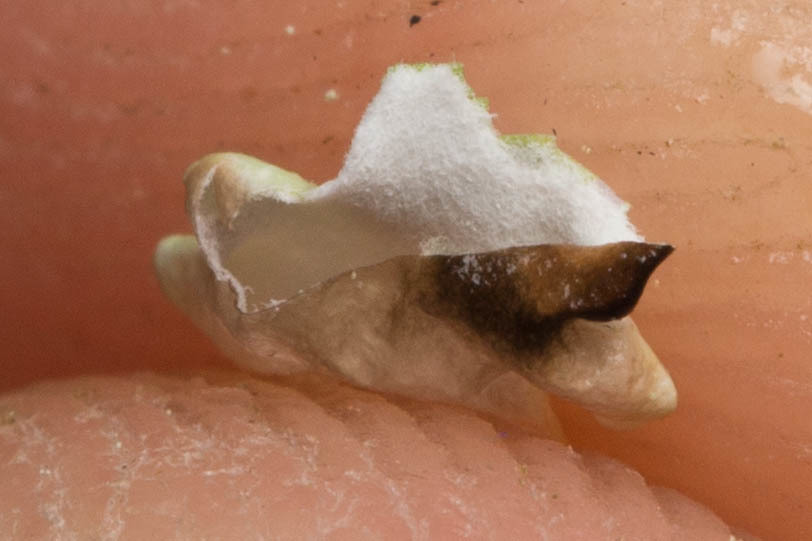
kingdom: Fungi
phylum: Ascomycota
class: Lecanoromycetes
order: Lecanorales
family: Parmeliaceae
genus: Hypogymnia
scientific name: Hypogymnia physodes
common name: Dark crottle
